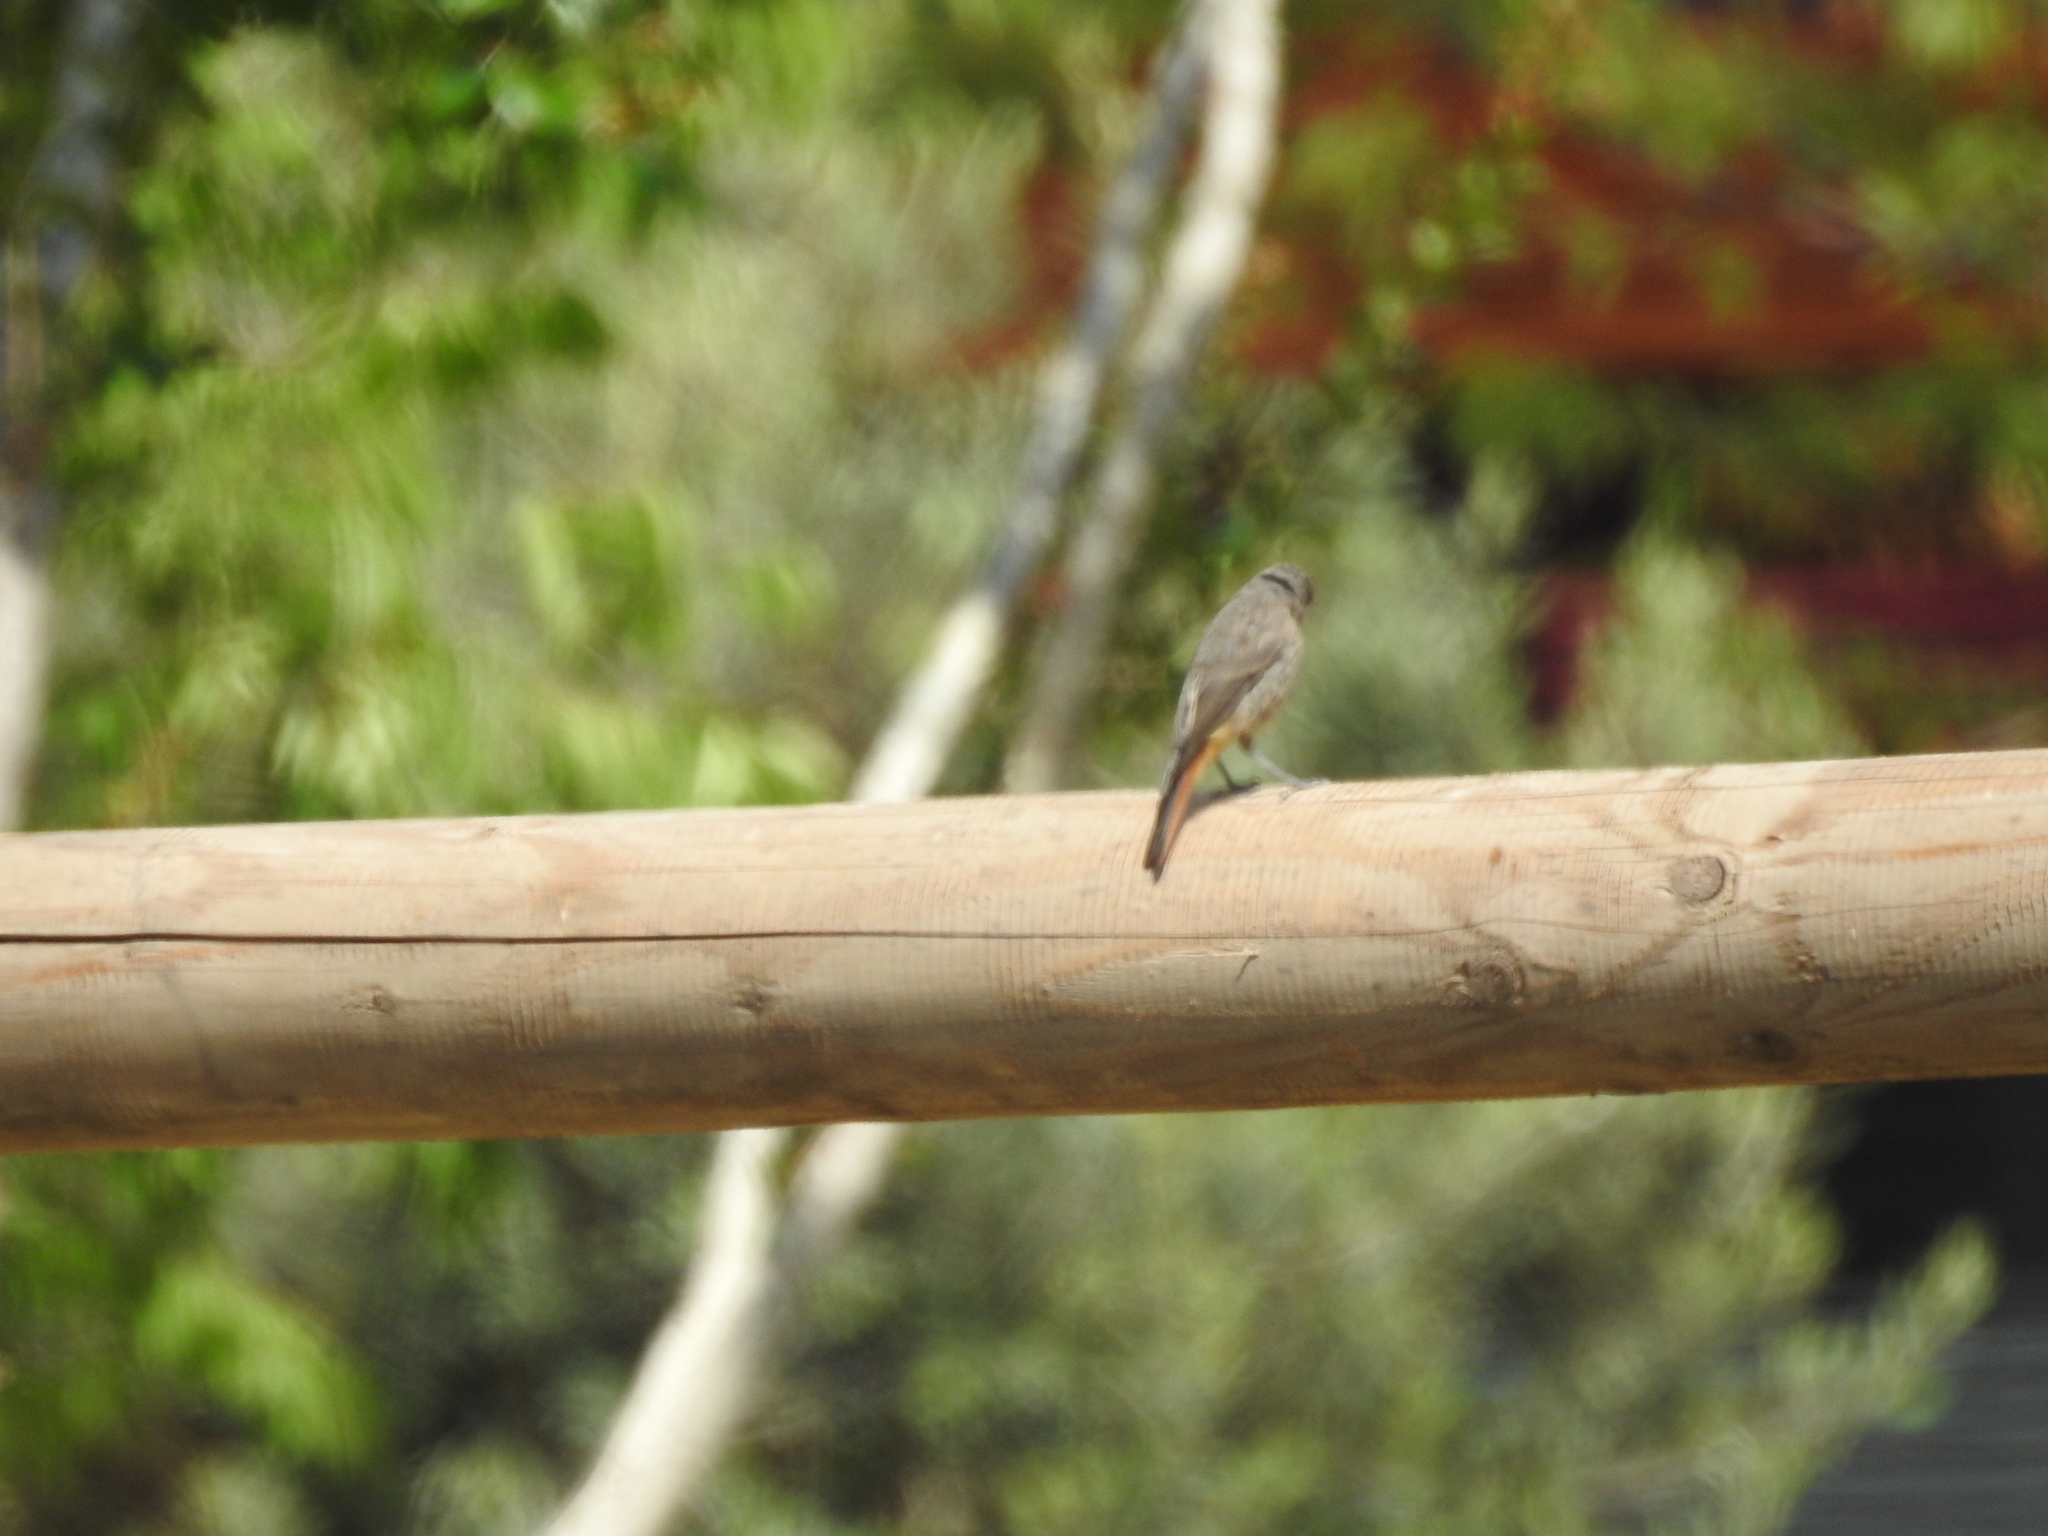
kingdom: Animalia
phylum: Chordata
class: Aves
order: Passeriformes
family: Muscicapidae
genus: Phoenicurus
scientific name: Phoenicurus ochruros
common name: Black redstart
